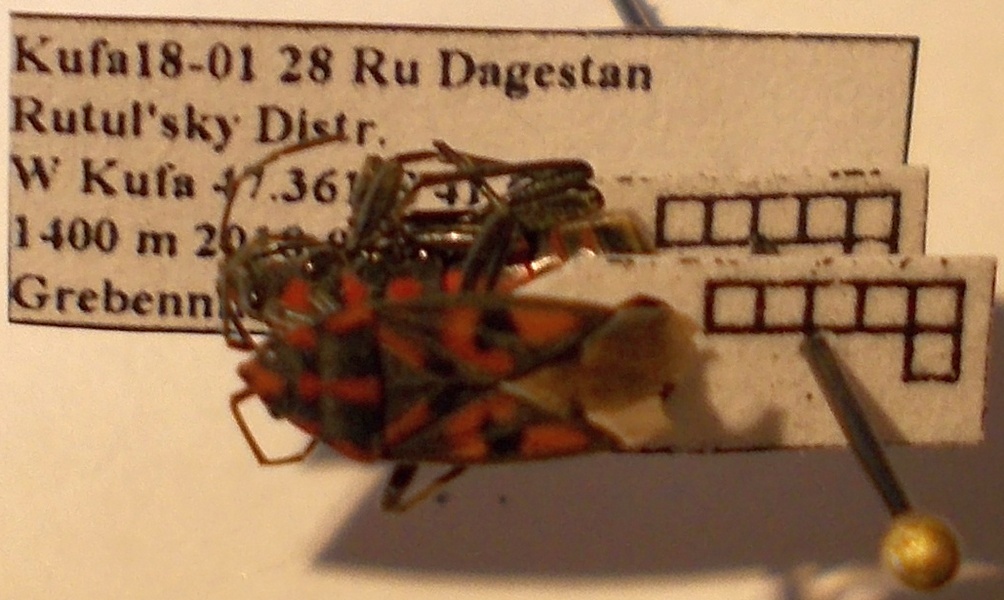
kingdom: Animalia
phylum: Arthropoda
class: Insecta
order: Hemiptera
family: Lygaeidae
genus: Spilostethus
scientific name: Spilostethus saxatilis
